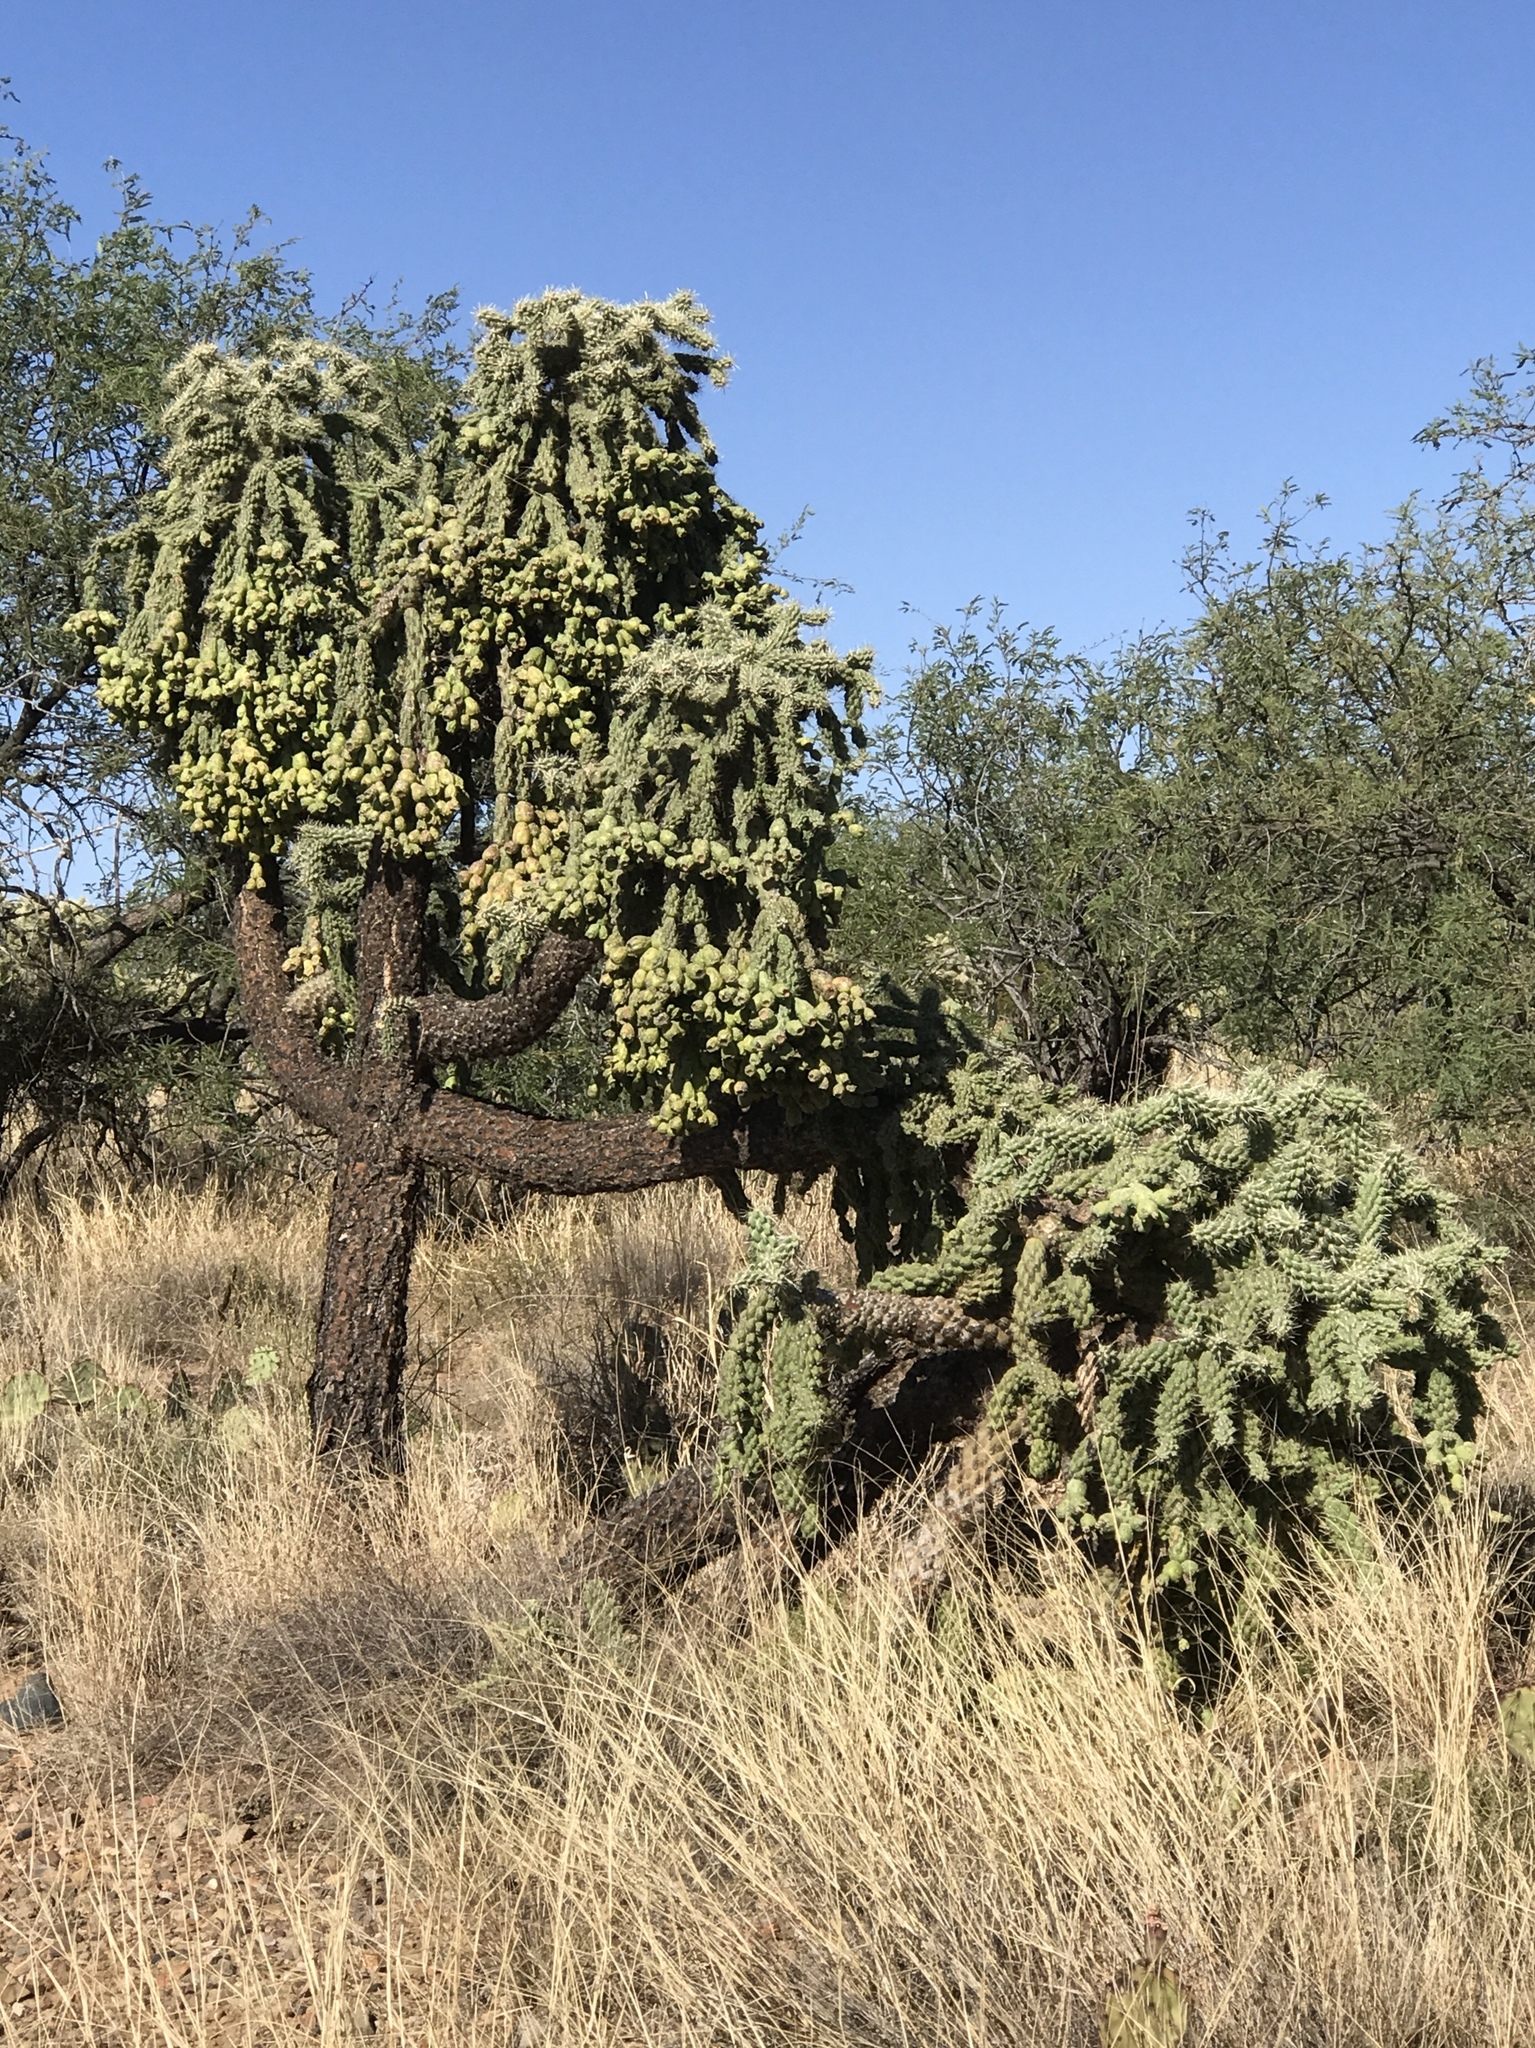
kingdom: Plantae
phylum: Tracheophyta
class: Magnoliopsida
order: Caryophyllales
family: Cactaceae
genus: Cylindropuntia
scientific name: Cylindropuntia fulgida
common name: Jumping cholla
